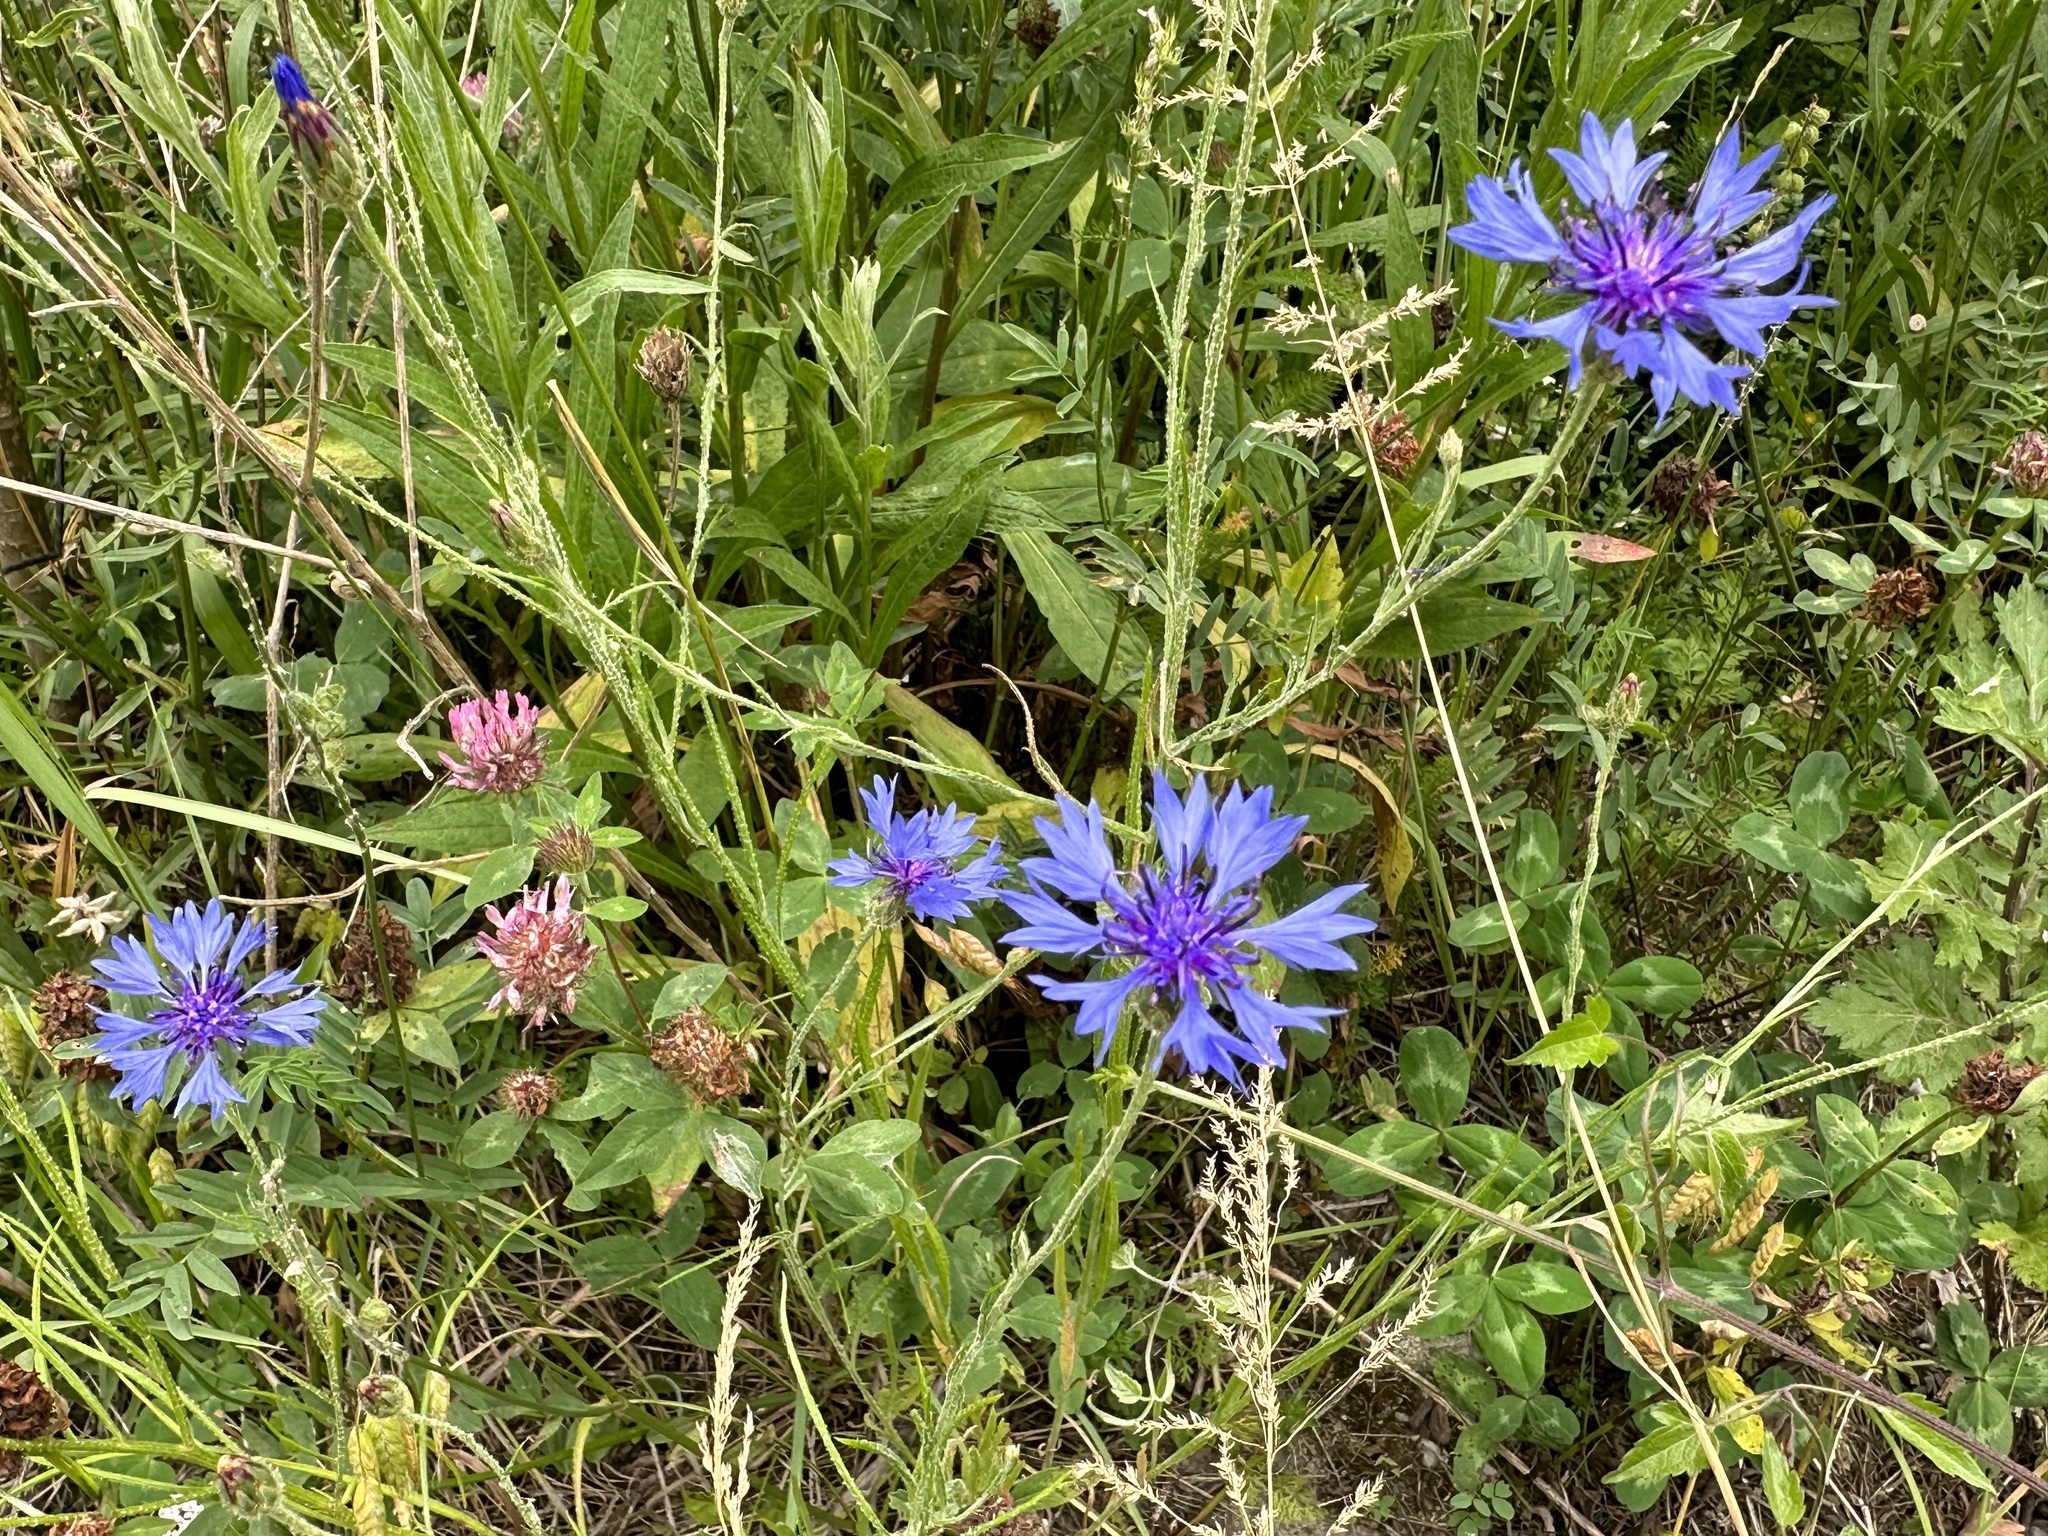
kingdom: Plantae
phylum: Tracheophyta
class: Magnoliopsida
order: Asterales
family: Asteraceae
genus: Centaurea
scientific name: Centaurea cyanus
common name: Cornflower
